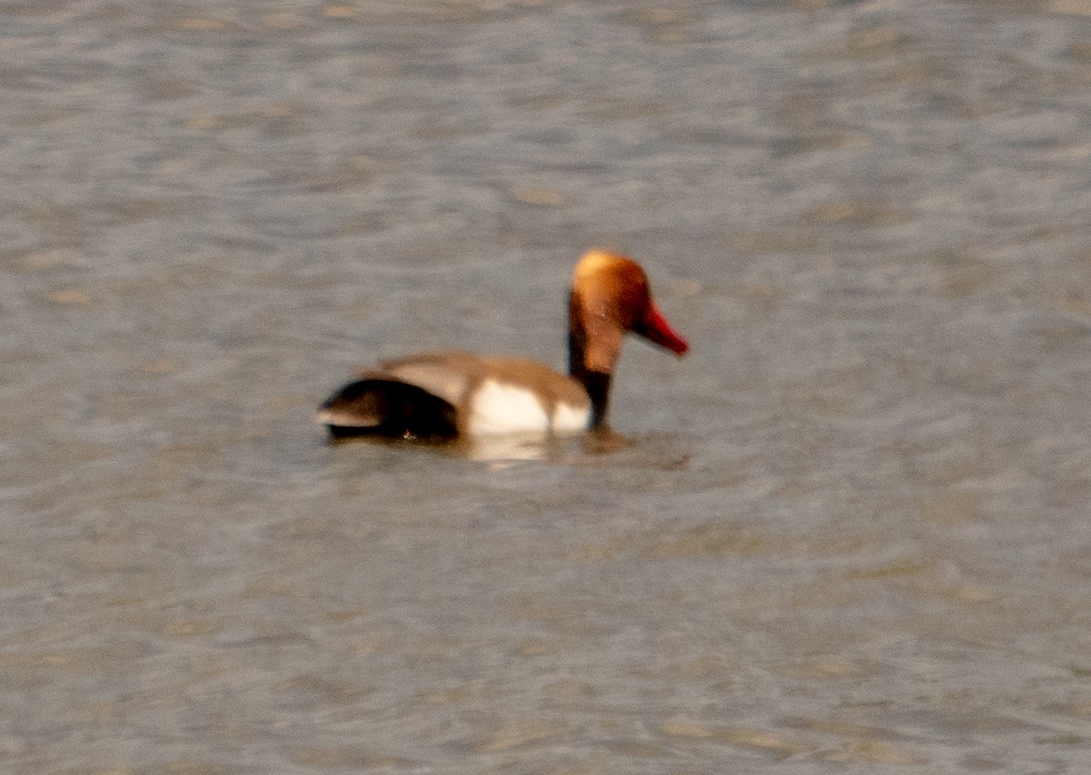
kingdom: Animalia
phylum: Chordata
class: Aves
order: Anseriformes
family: Anatidae
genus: Netta
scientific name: Netta rufina
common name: Red-crested pochard
